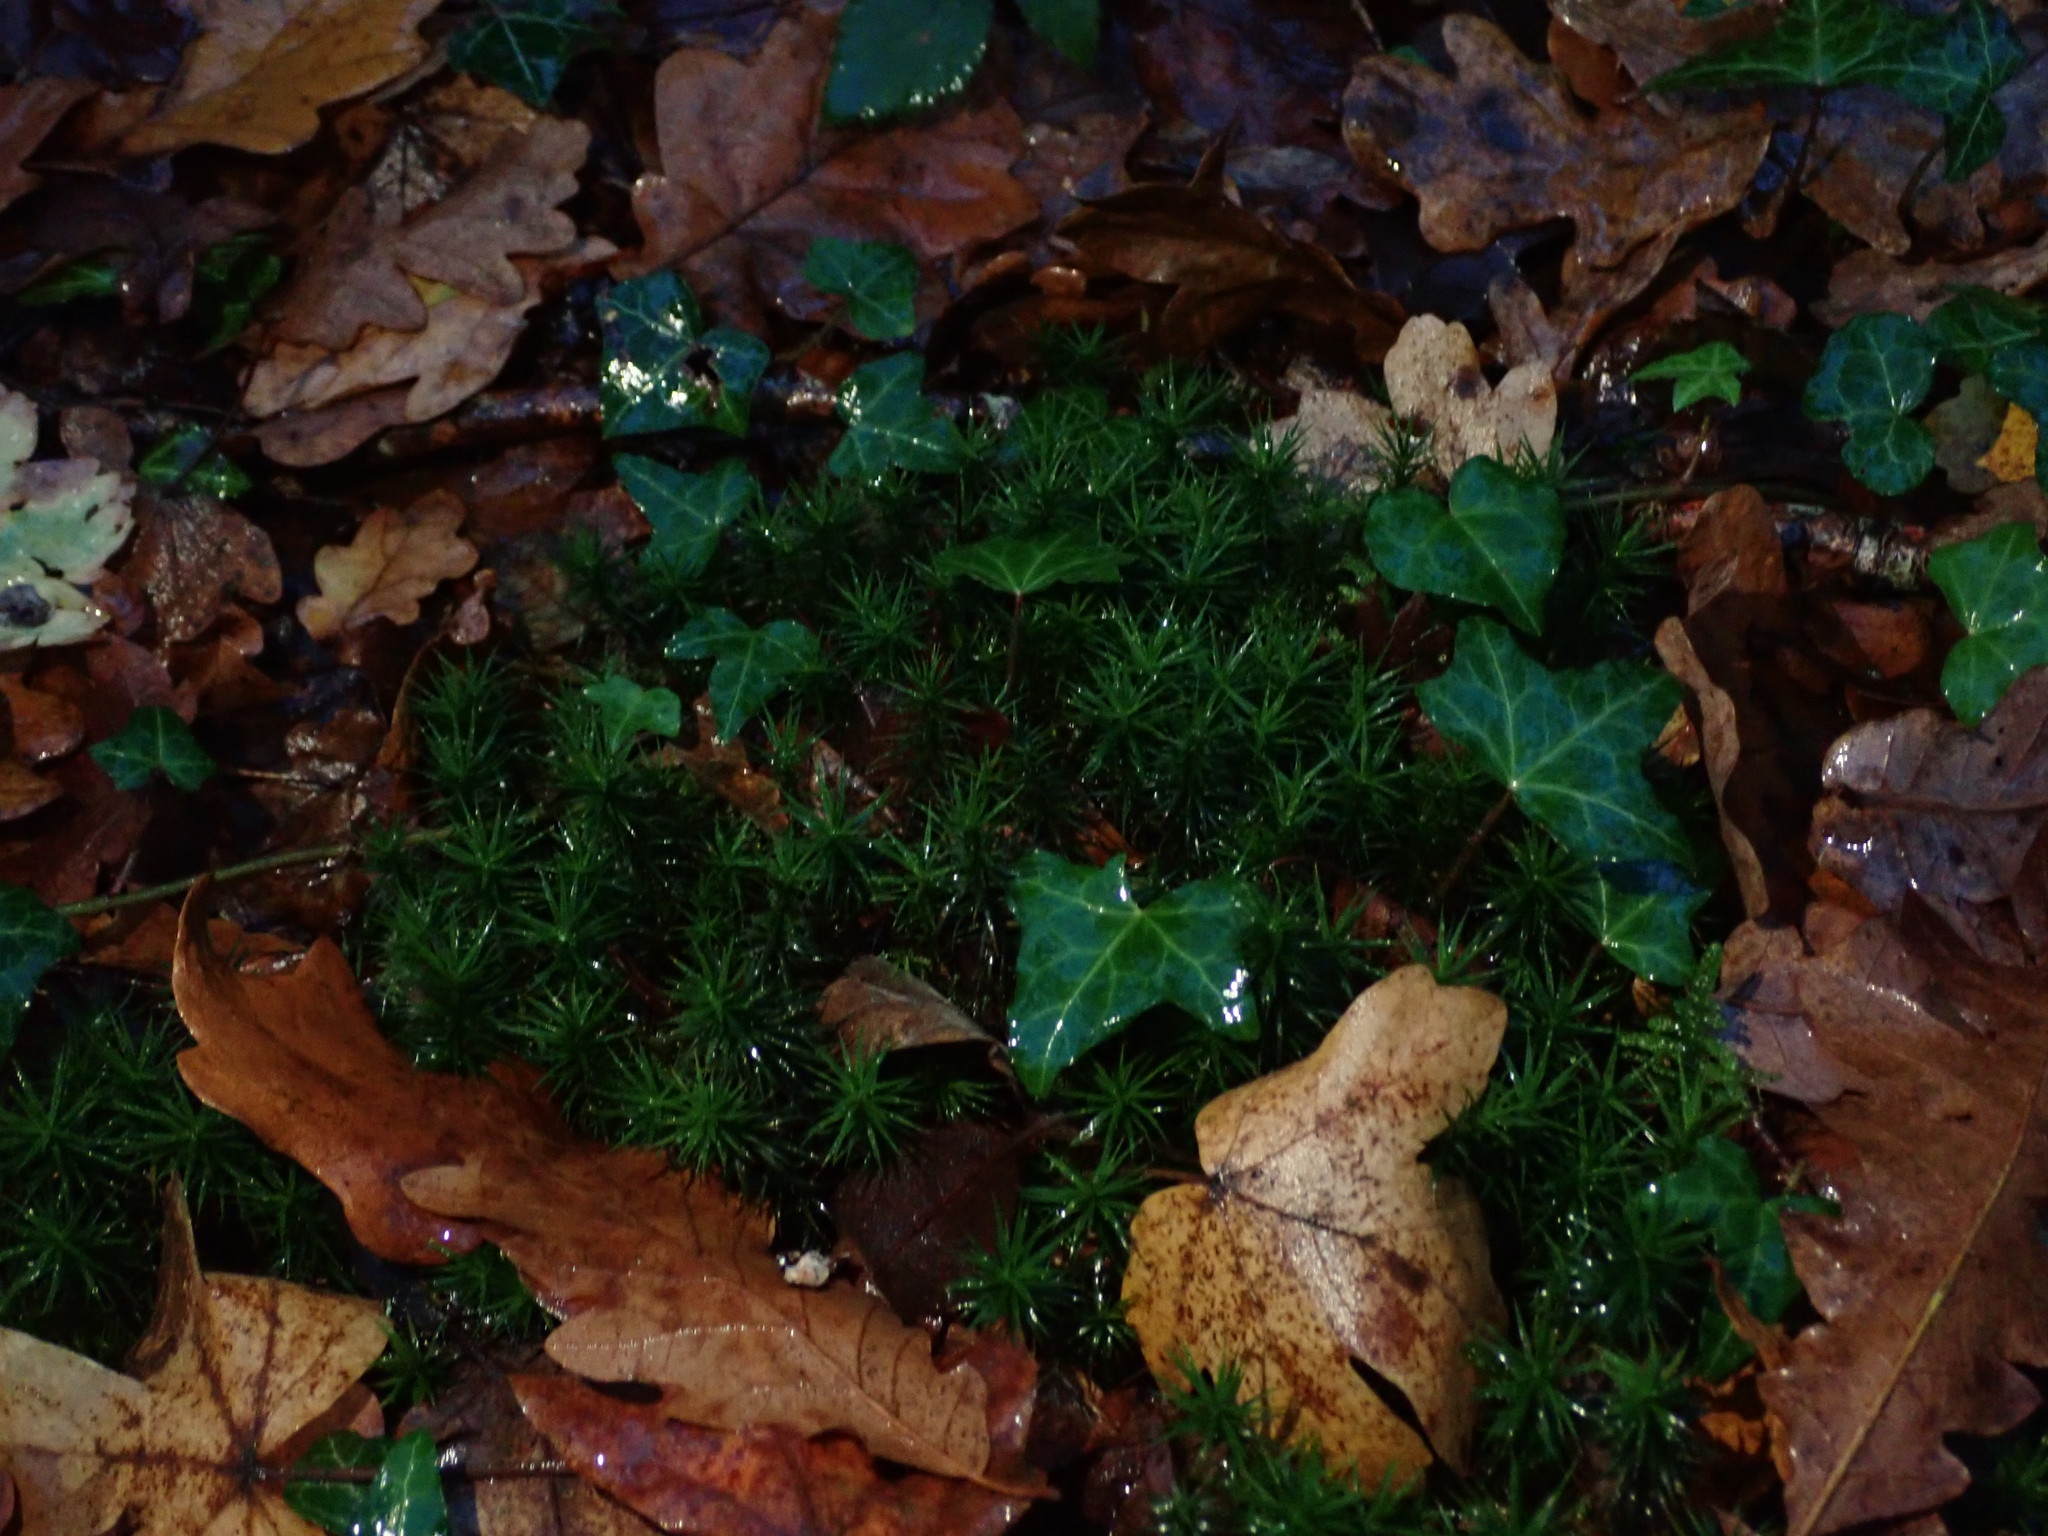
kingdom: Plantae
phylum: Bryophyta
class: Polytrichopsida
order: Polytrichales
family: Polytrichaceae
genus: Polytrichum
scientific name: Polytrichum formosum
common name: Bank haircap moss
